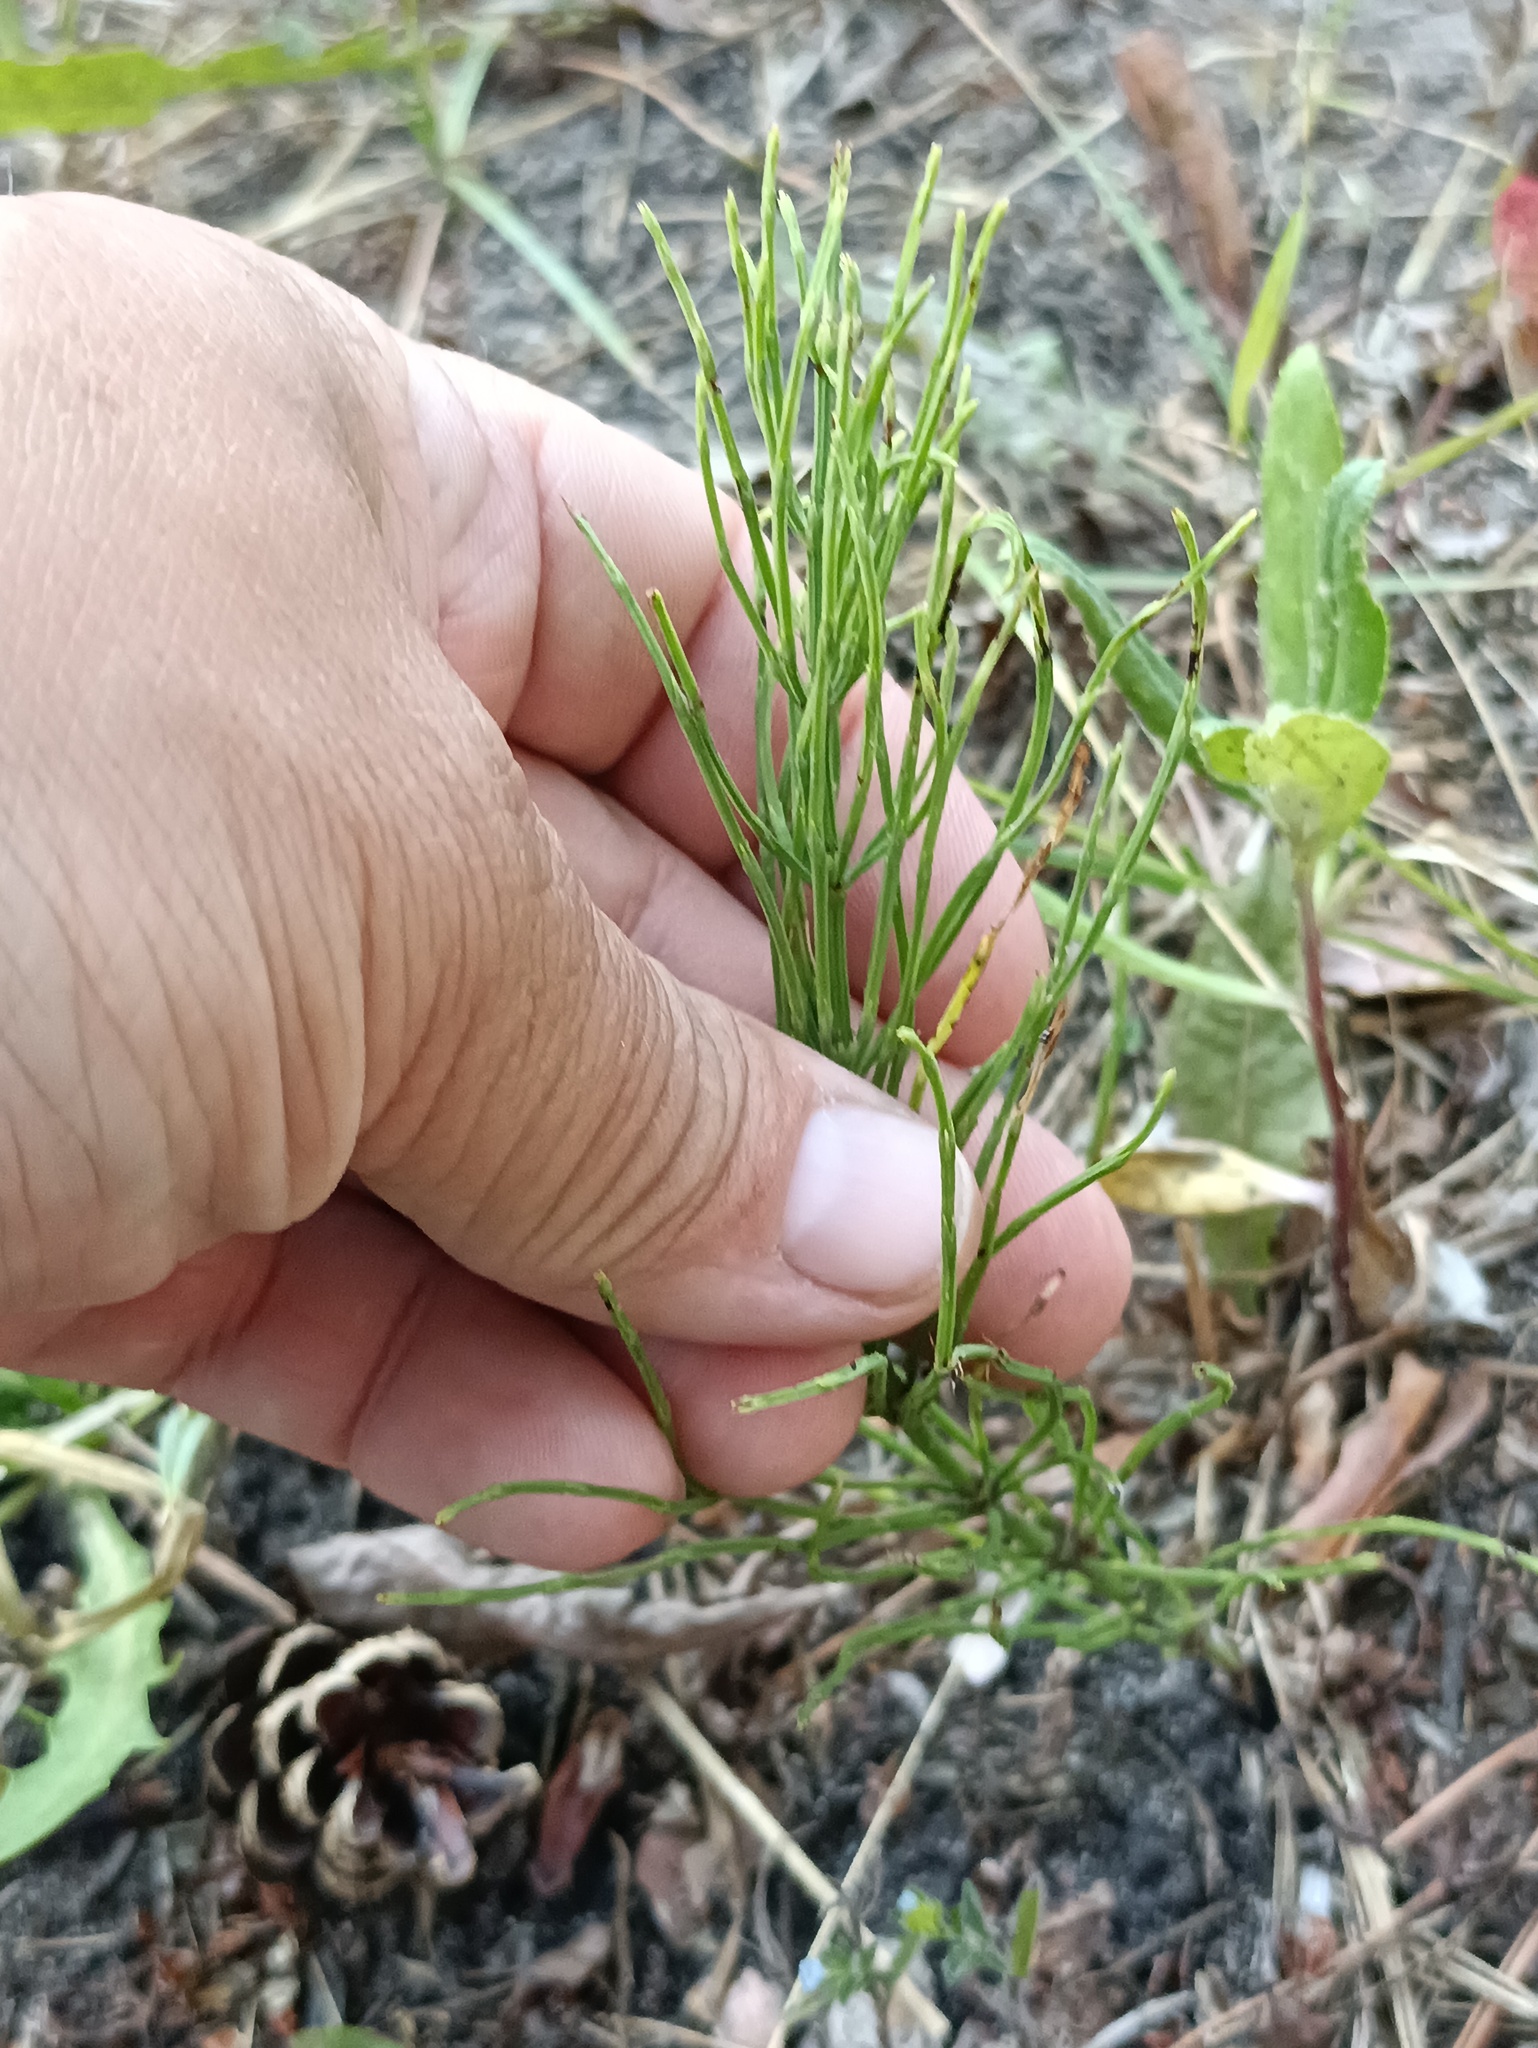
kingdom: Plantae
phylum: Tracheophyta
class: Polypodiopsida
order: Equisetales
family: Equisetaceae
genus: Equisetum
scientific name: Equisetum arvense
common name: Field horsetail
